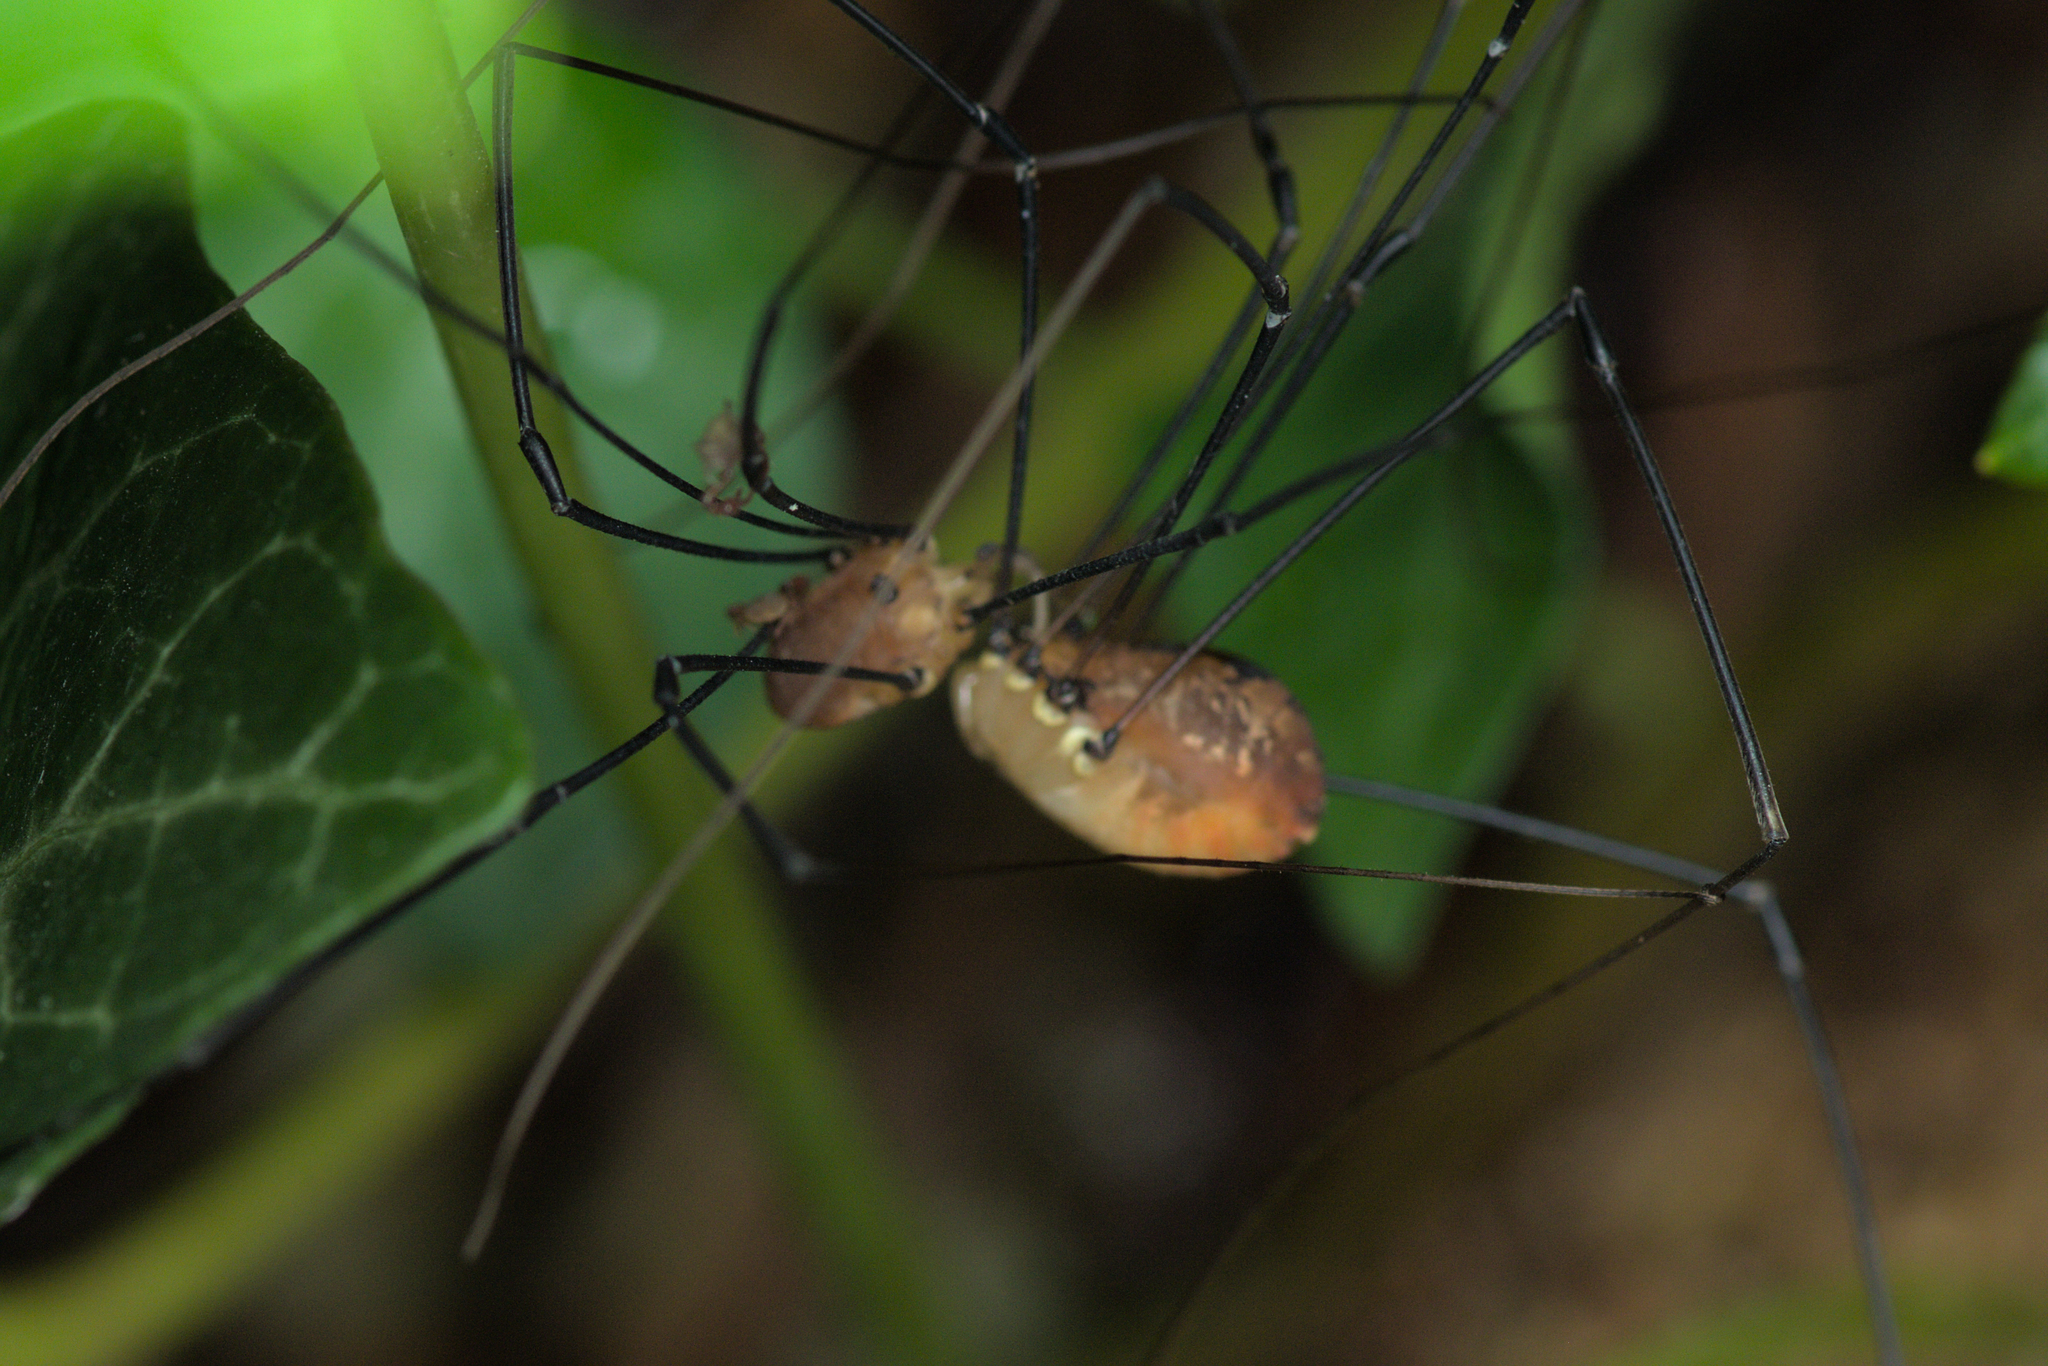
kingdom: Animalia
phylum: Arthropoda
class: Arachnida
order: Opiliones
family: Sclerosomatidae
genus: Leiobunum
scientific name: Leiobunum rotundum
